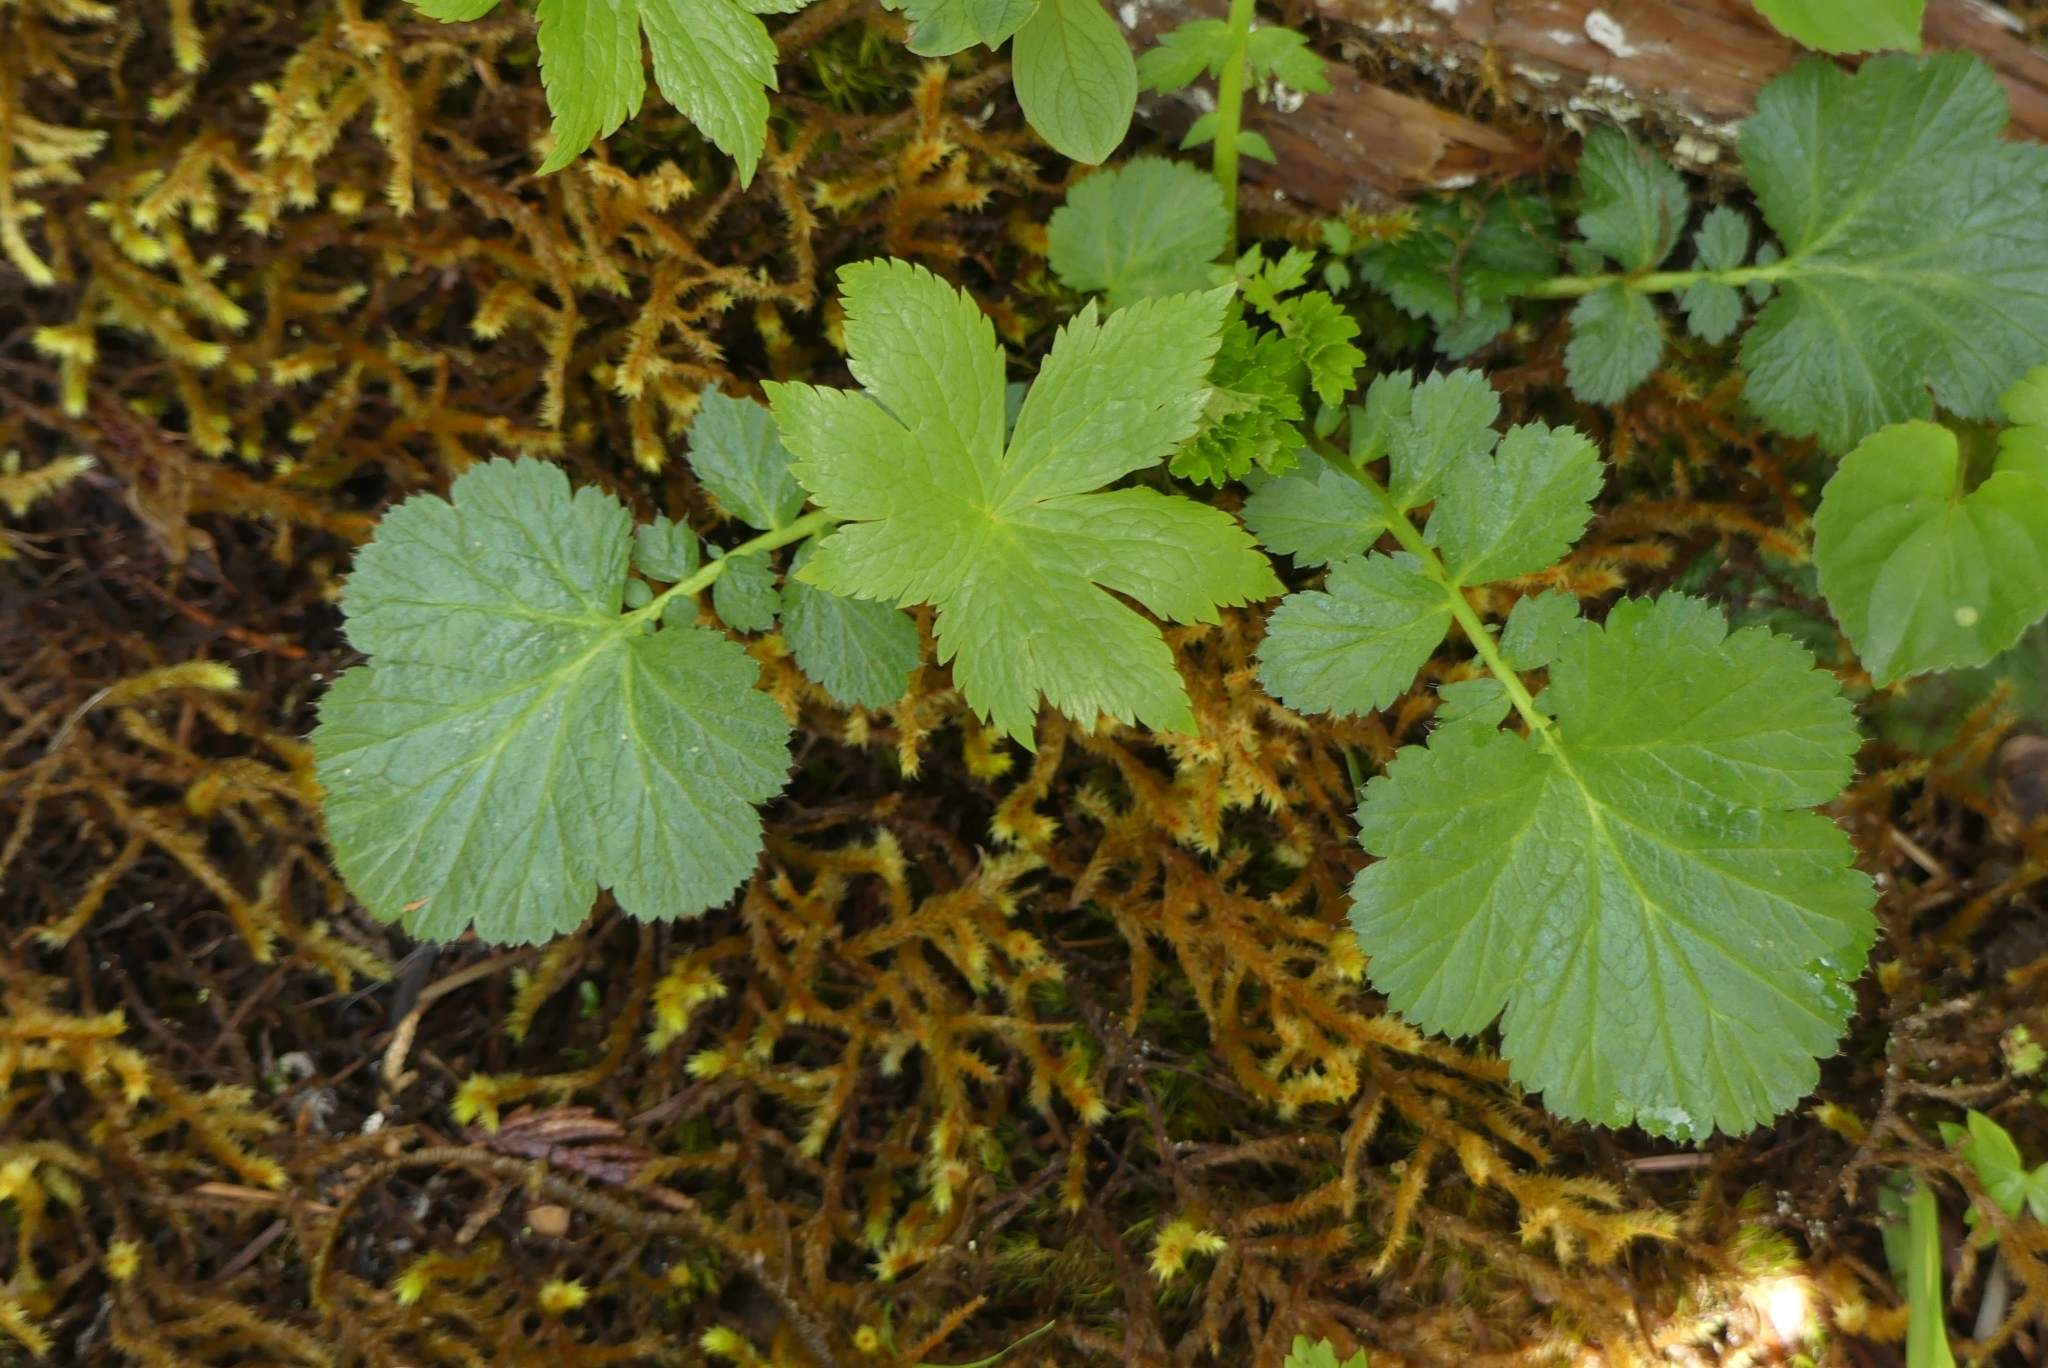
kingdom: Plantae
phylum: Tracheophyta
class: Magnoliopsida
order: Rosales
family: Rosaceae
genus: Geum
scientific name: Geum macrophyllum
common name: Large-leaved avens
